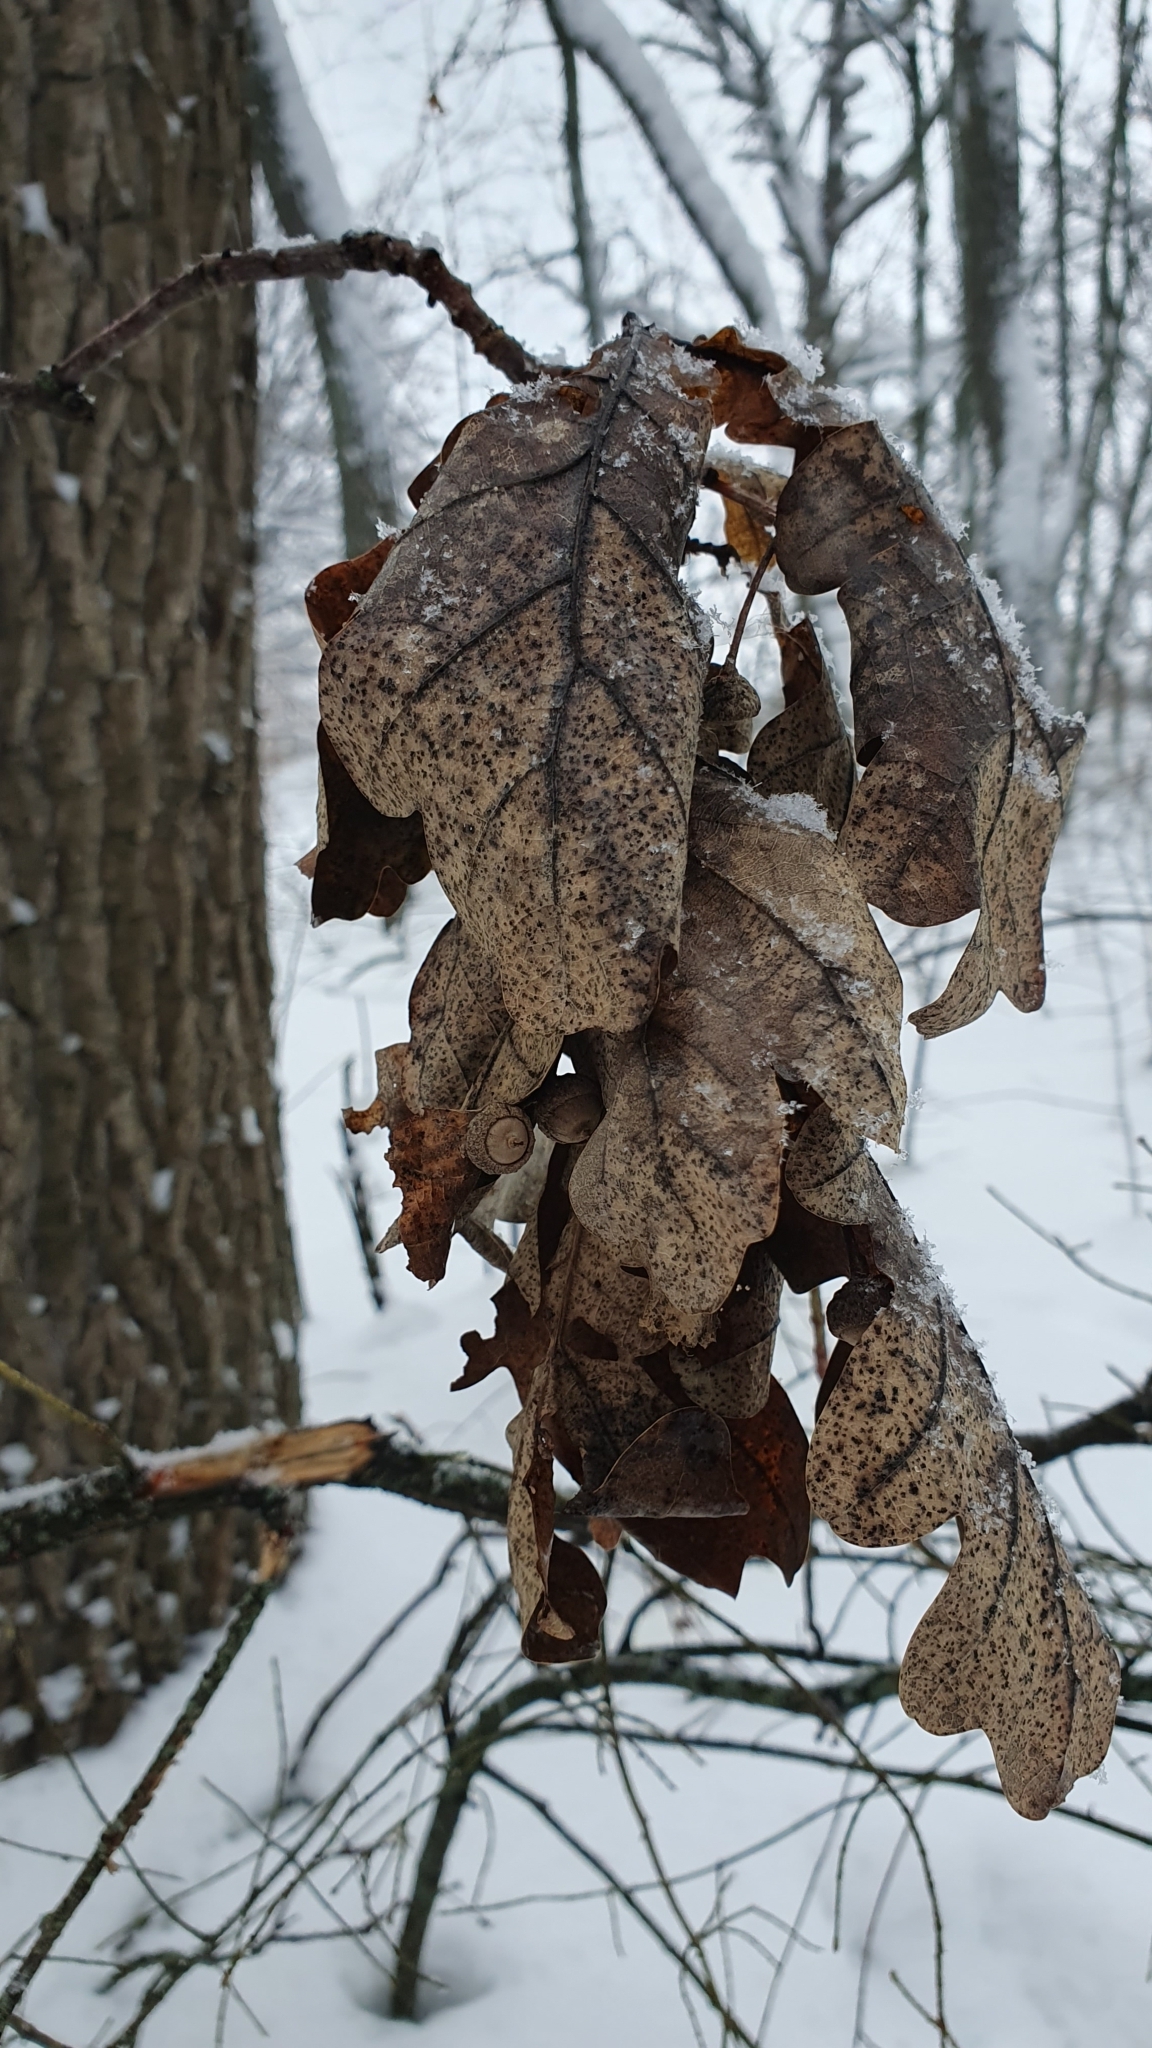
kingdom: Plantae
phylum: Tracheophyta
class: Magnoliopsida
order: Fagales
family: Fagaceae
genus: Quercus
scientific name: Quercus robur
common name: Pedunculate oak
